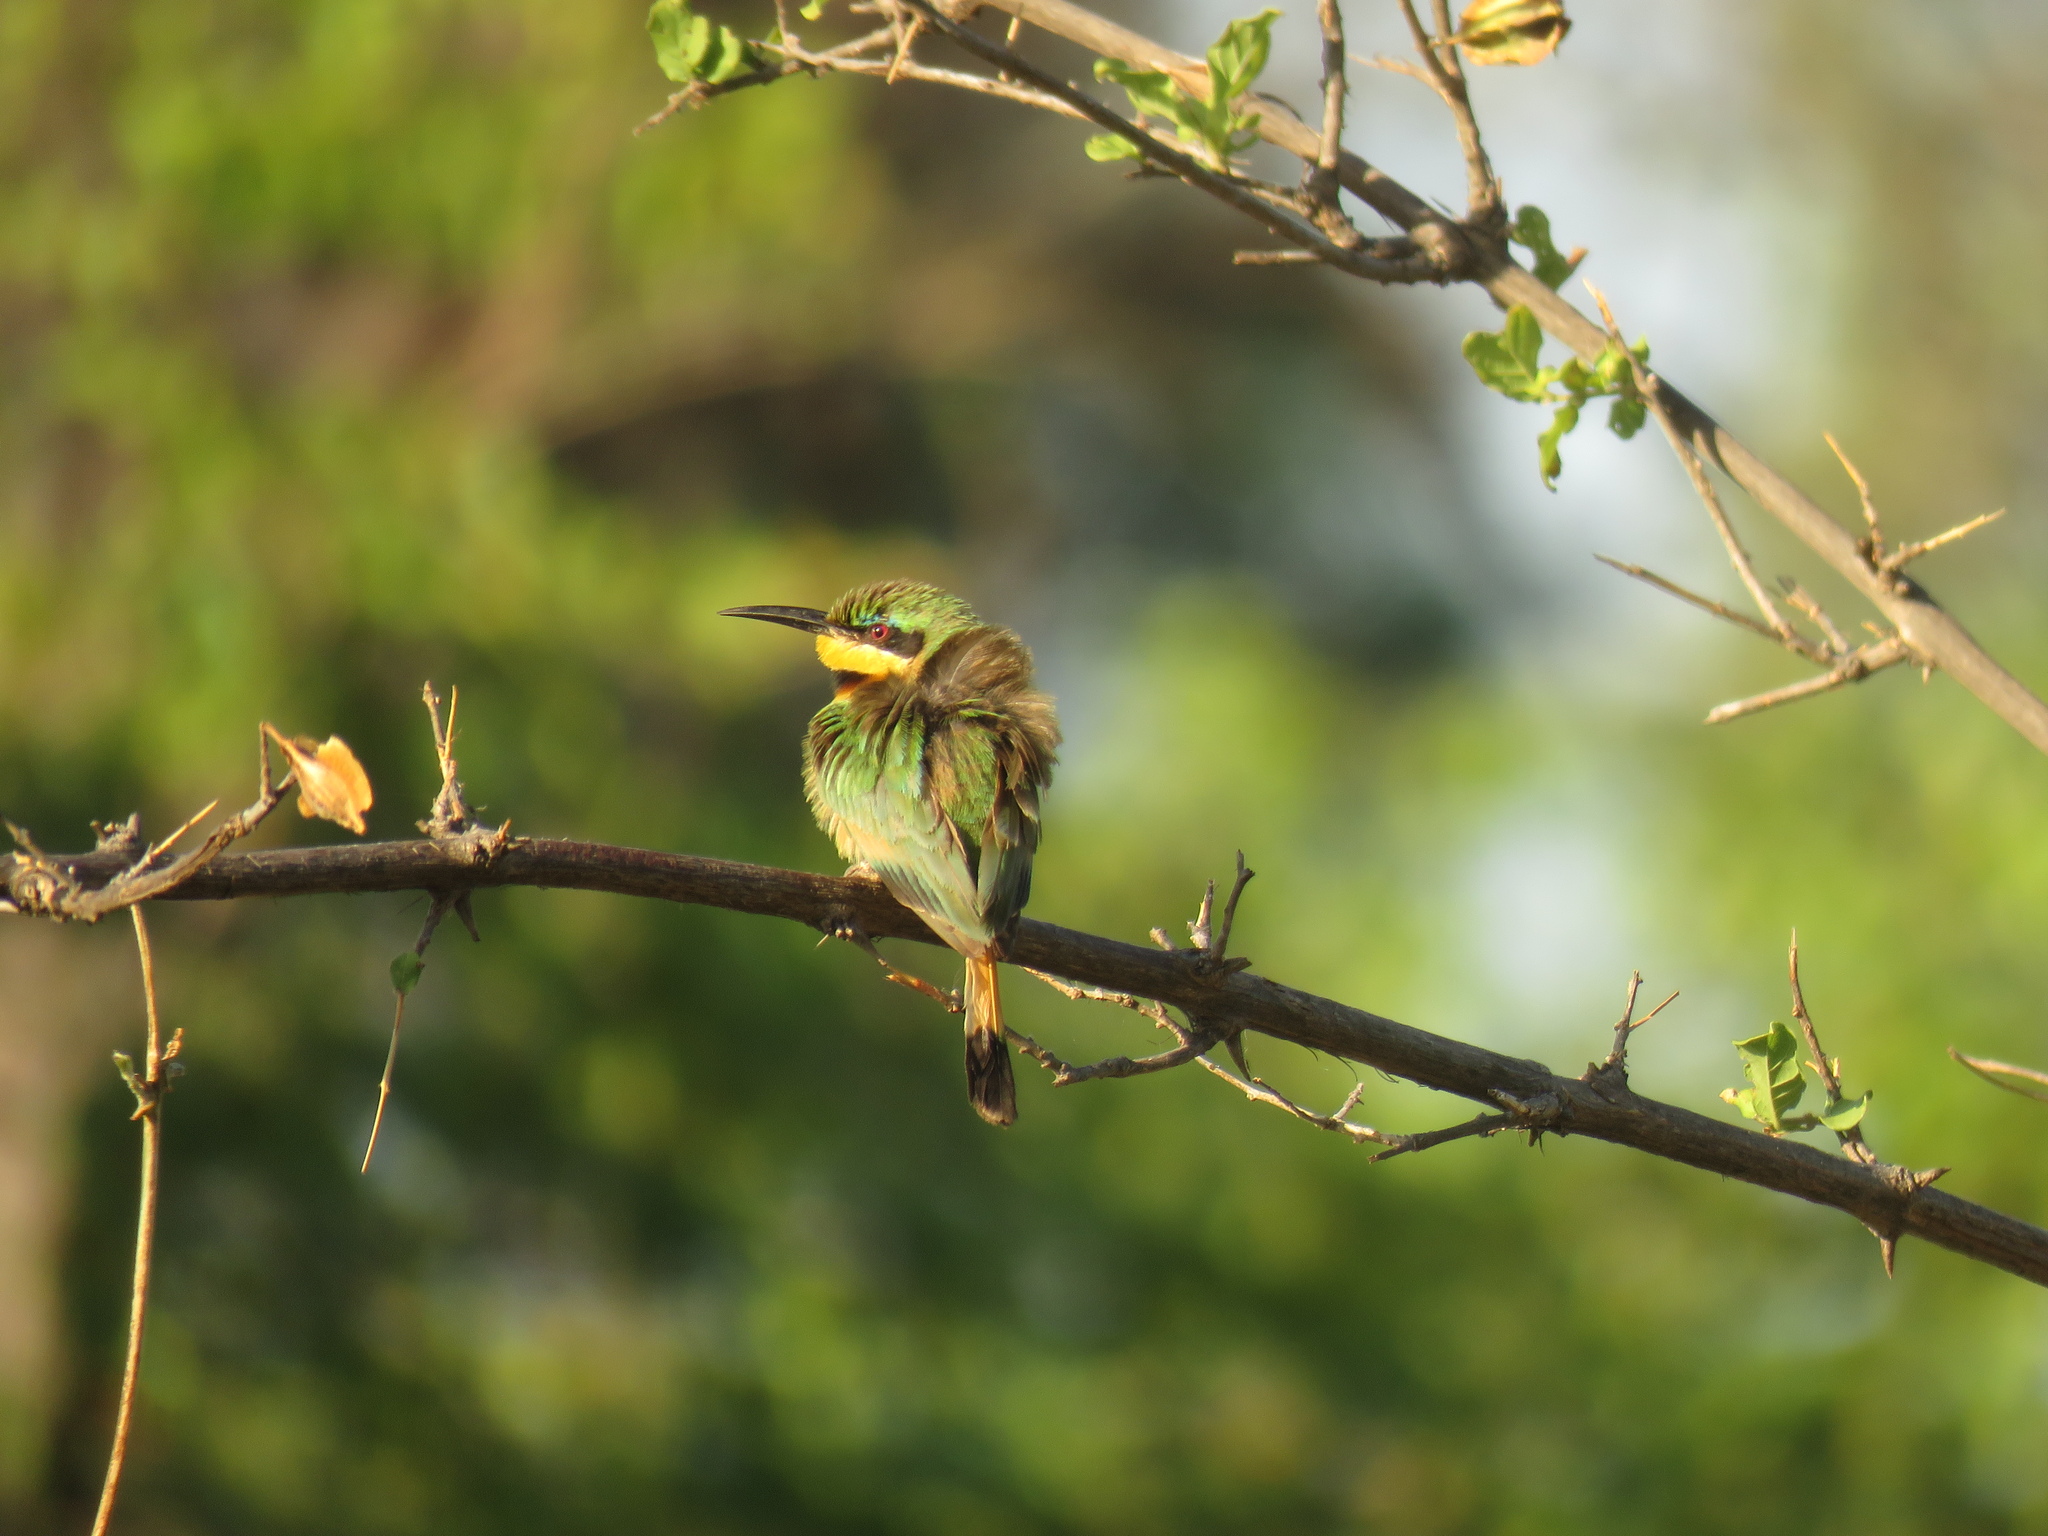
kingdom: Animalia
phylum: Chordata
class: Aves
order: Coraciiformes
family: Meropidae
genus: Merops
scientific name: Merops pusillus
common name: Little bee-eater
